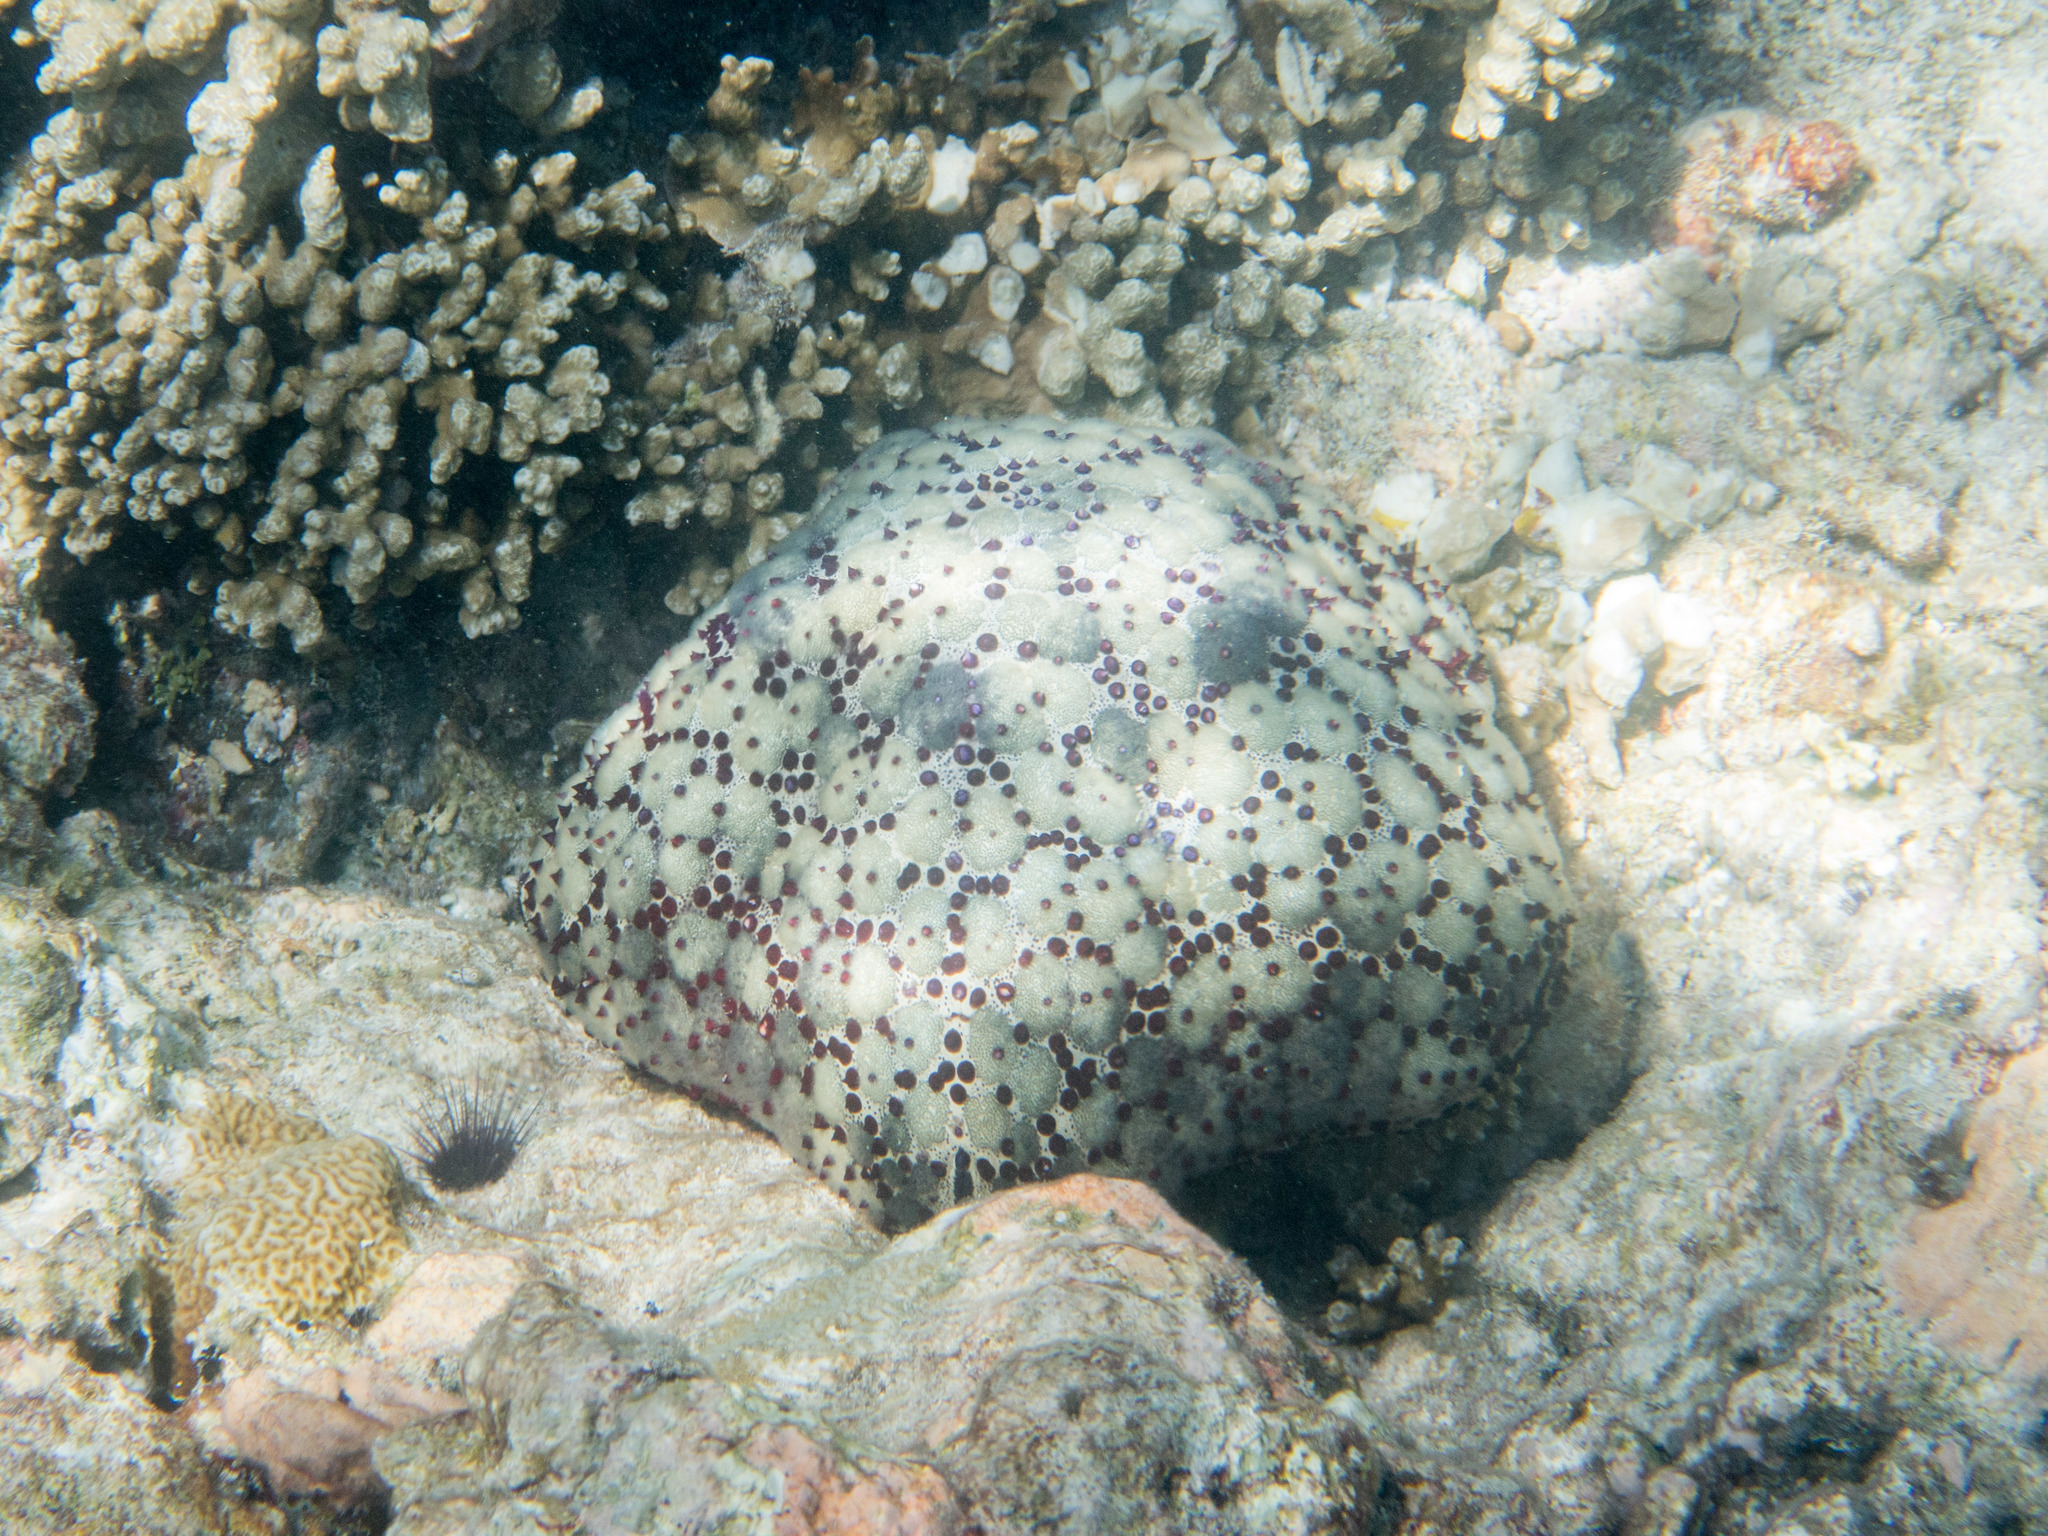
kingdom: Animalia
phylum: Echinodermata
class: Asteroidea
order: Valvatida
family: Oreasteridae
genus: Culcita
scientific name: Culcita schmideliana
